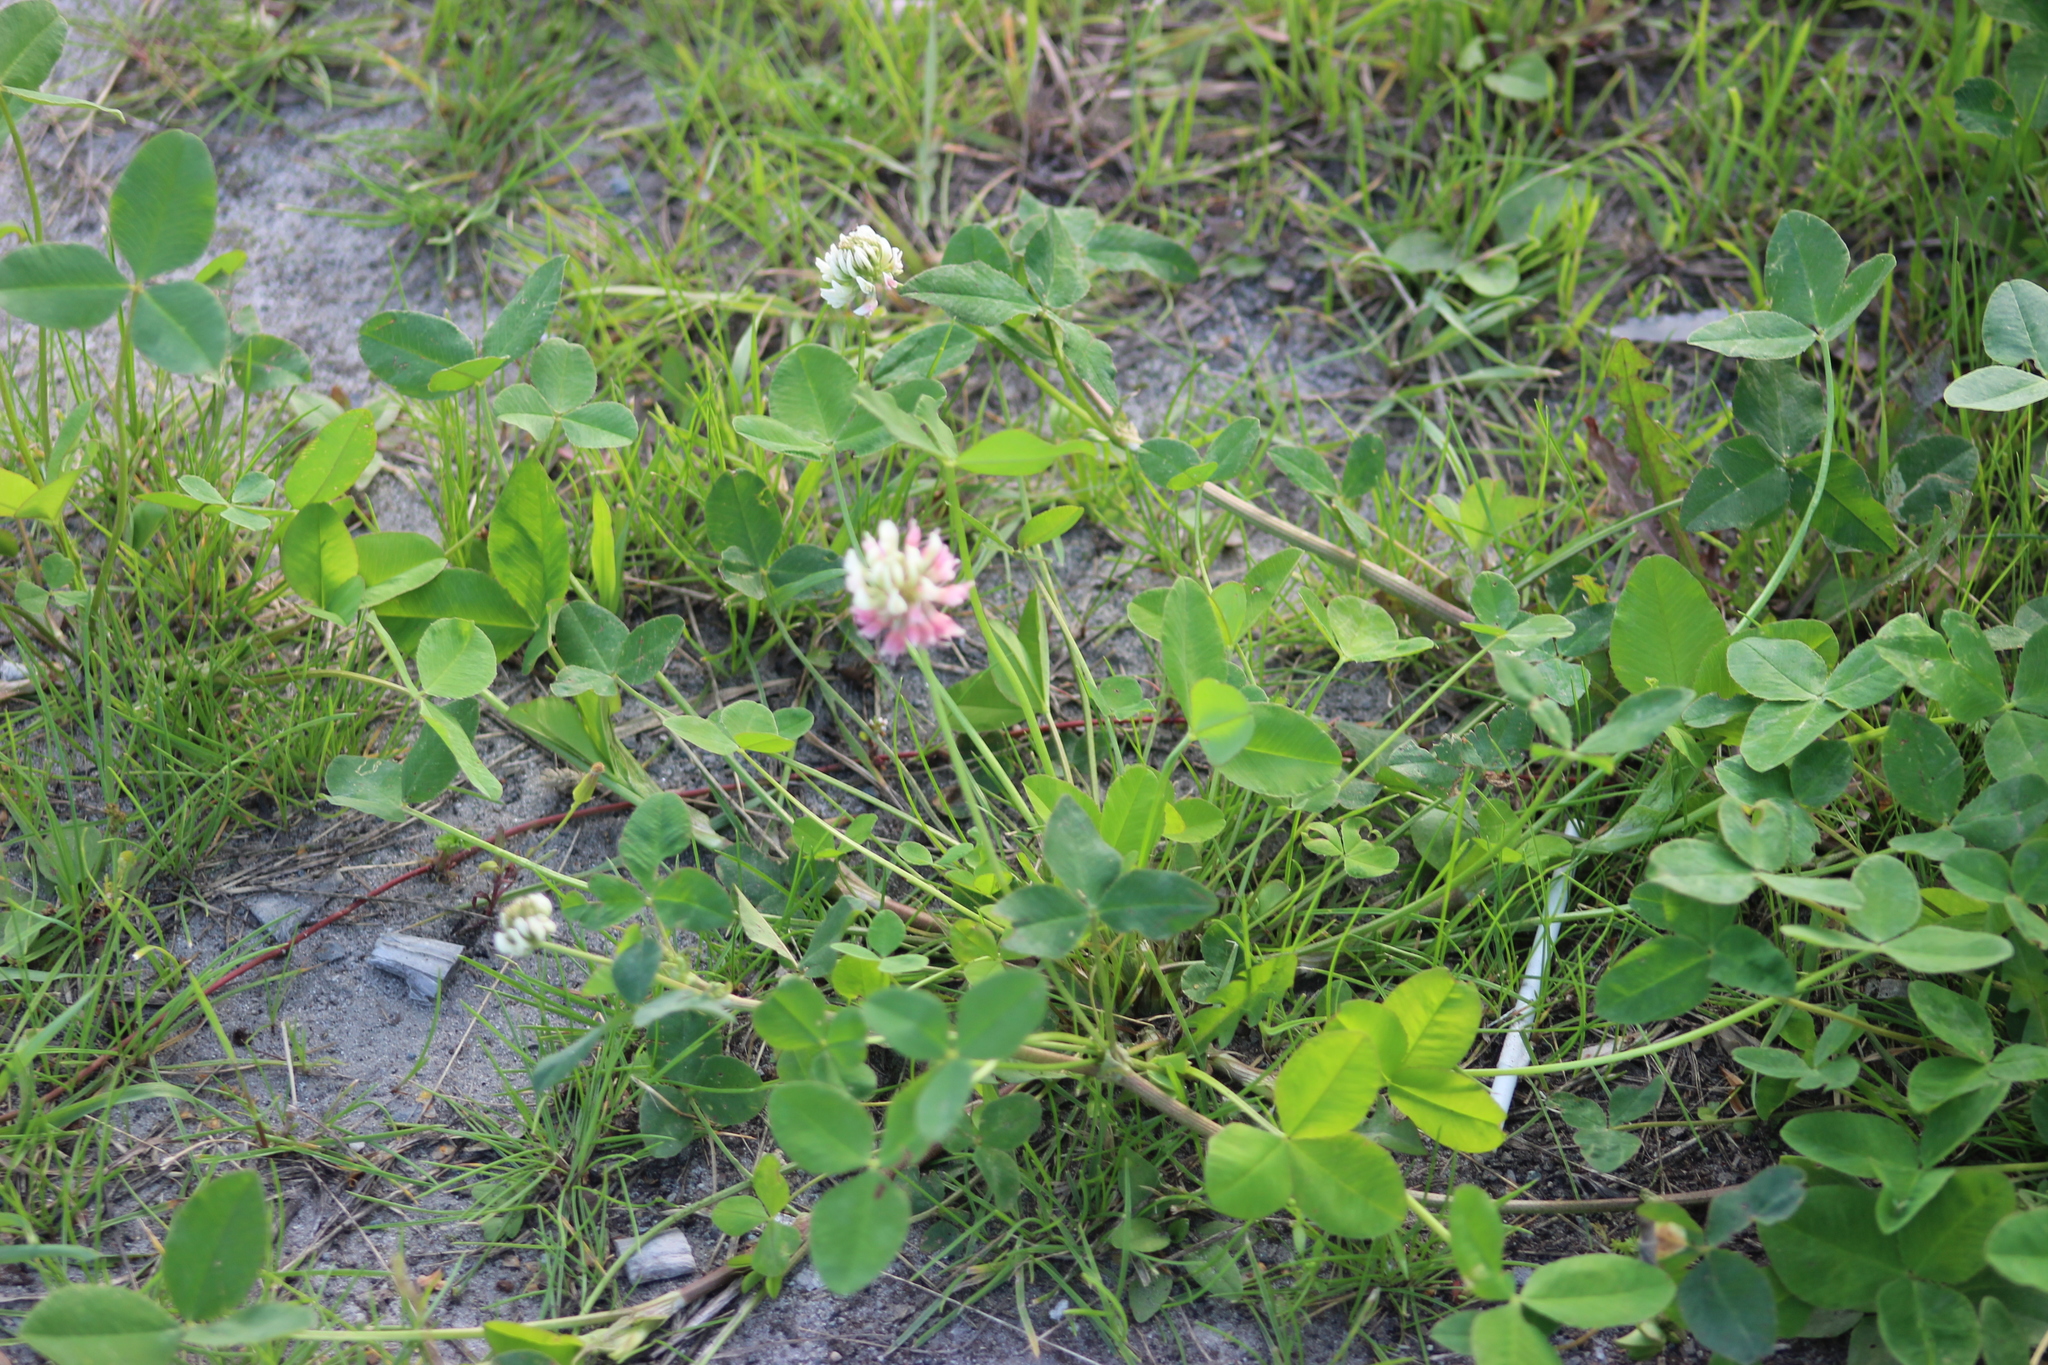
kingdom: Plantae
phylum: Tracheophyta
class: Magnoliopsida
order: Fabales
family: Fabaceae
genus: Trifolium
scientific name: Trifolium hybridum
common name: Alsike clover
